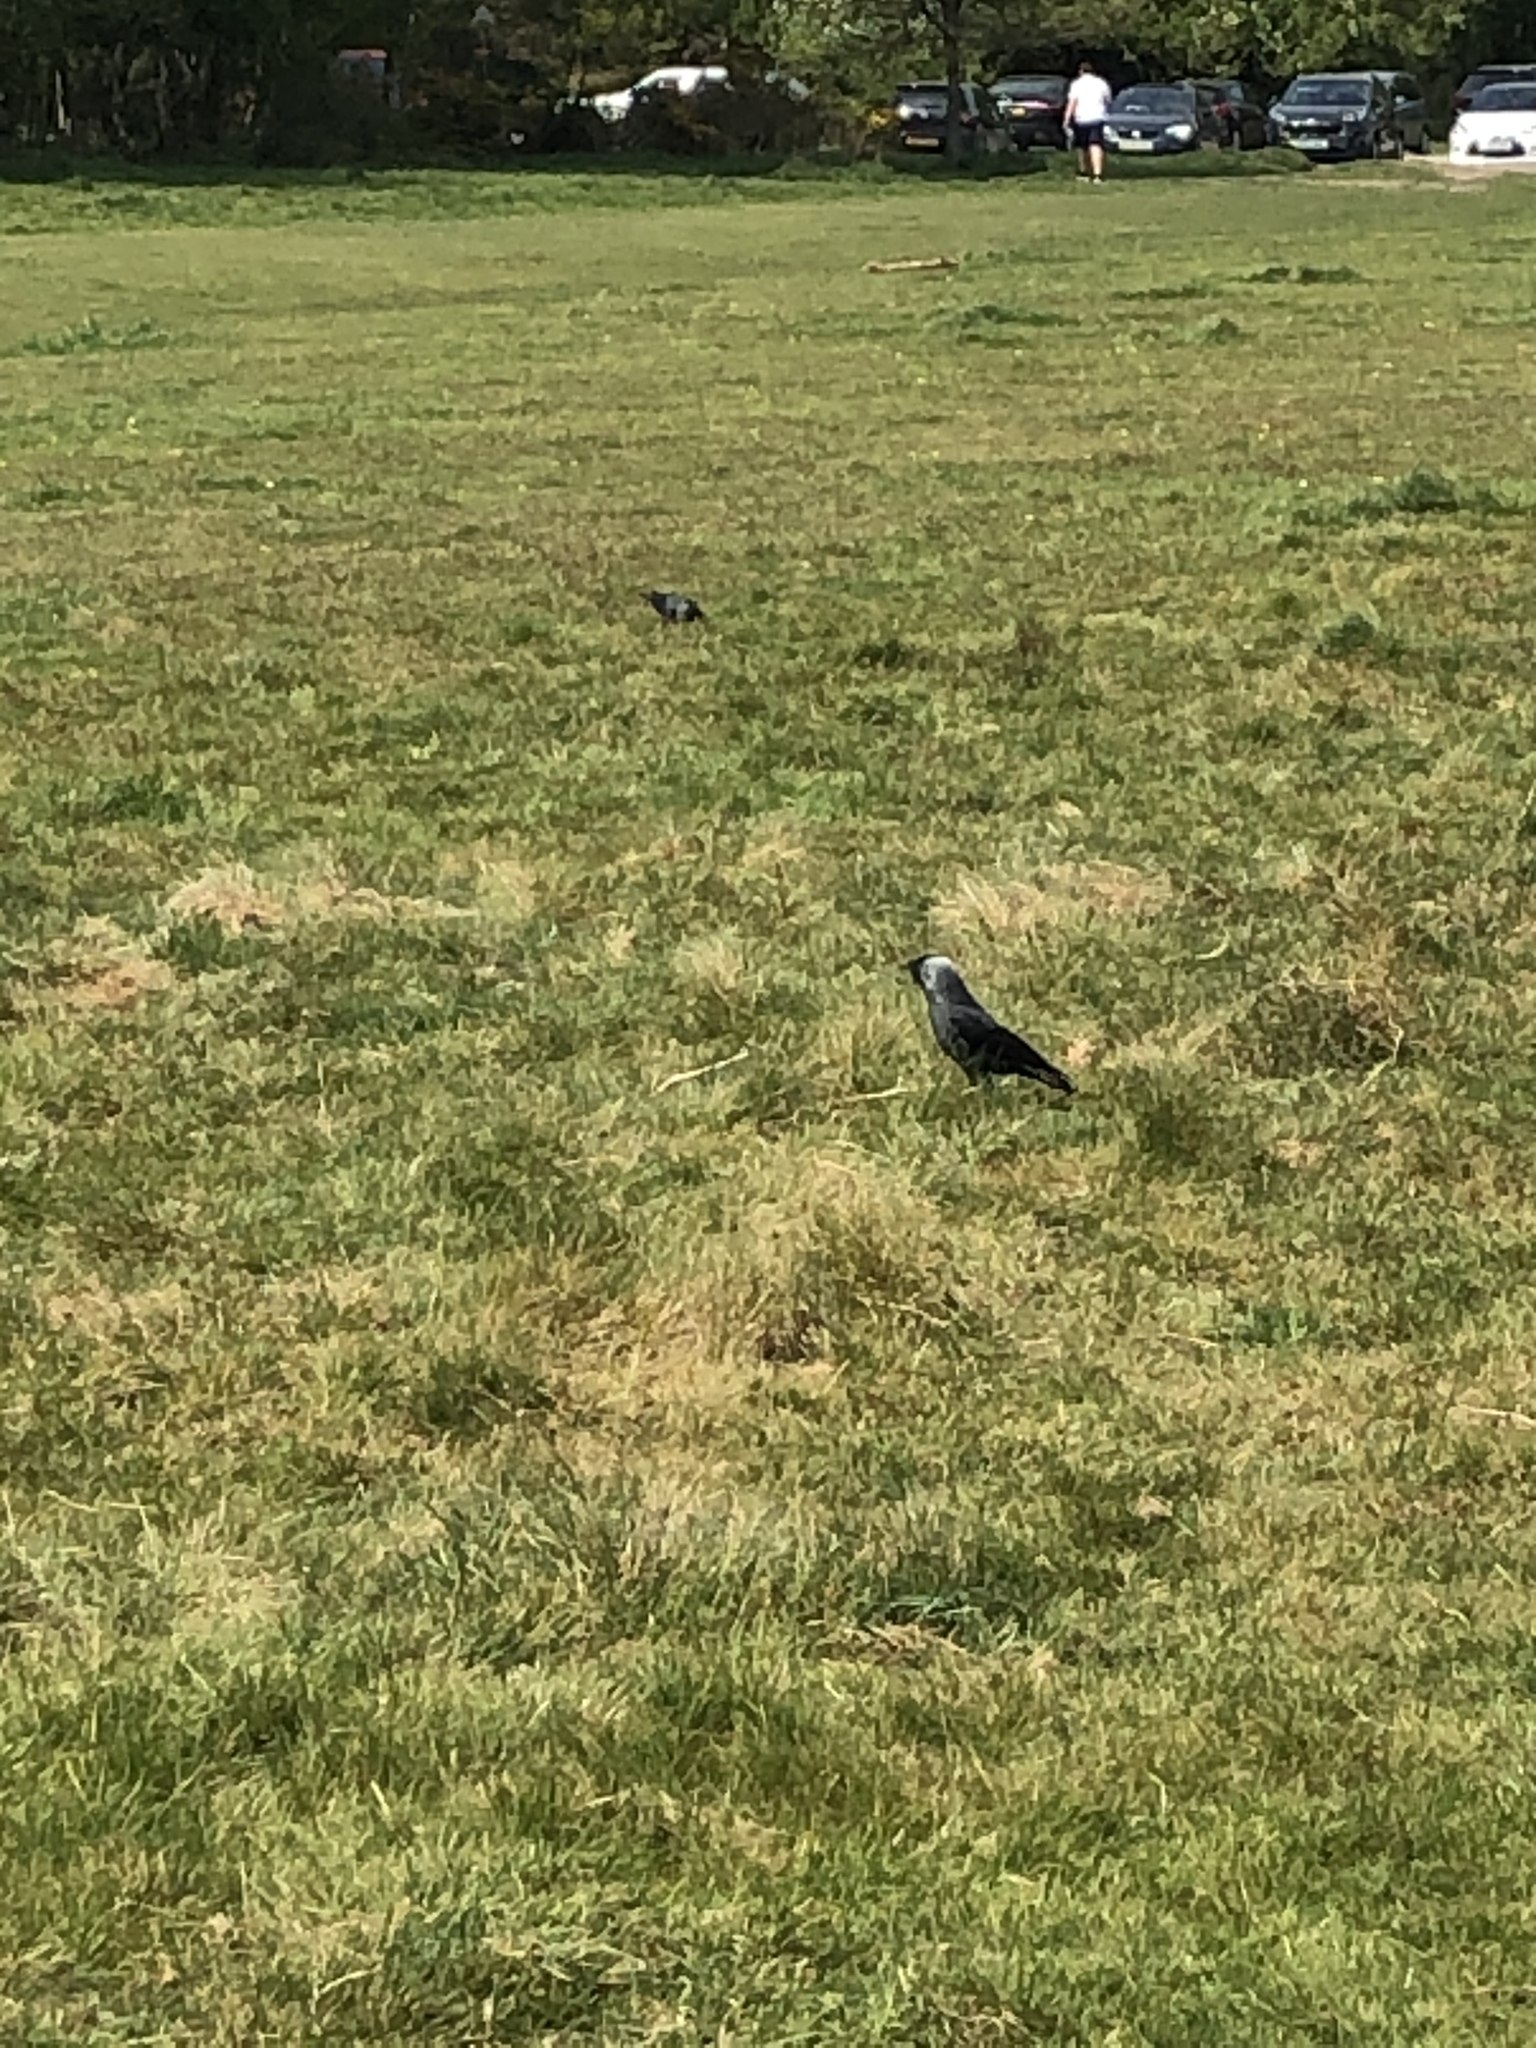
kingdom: Animalia
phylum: Chordata
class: Aves
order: Passeriformes
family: Corvidae
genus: Coloeus
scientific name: Coloeus monedula
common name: Western jackdaw
